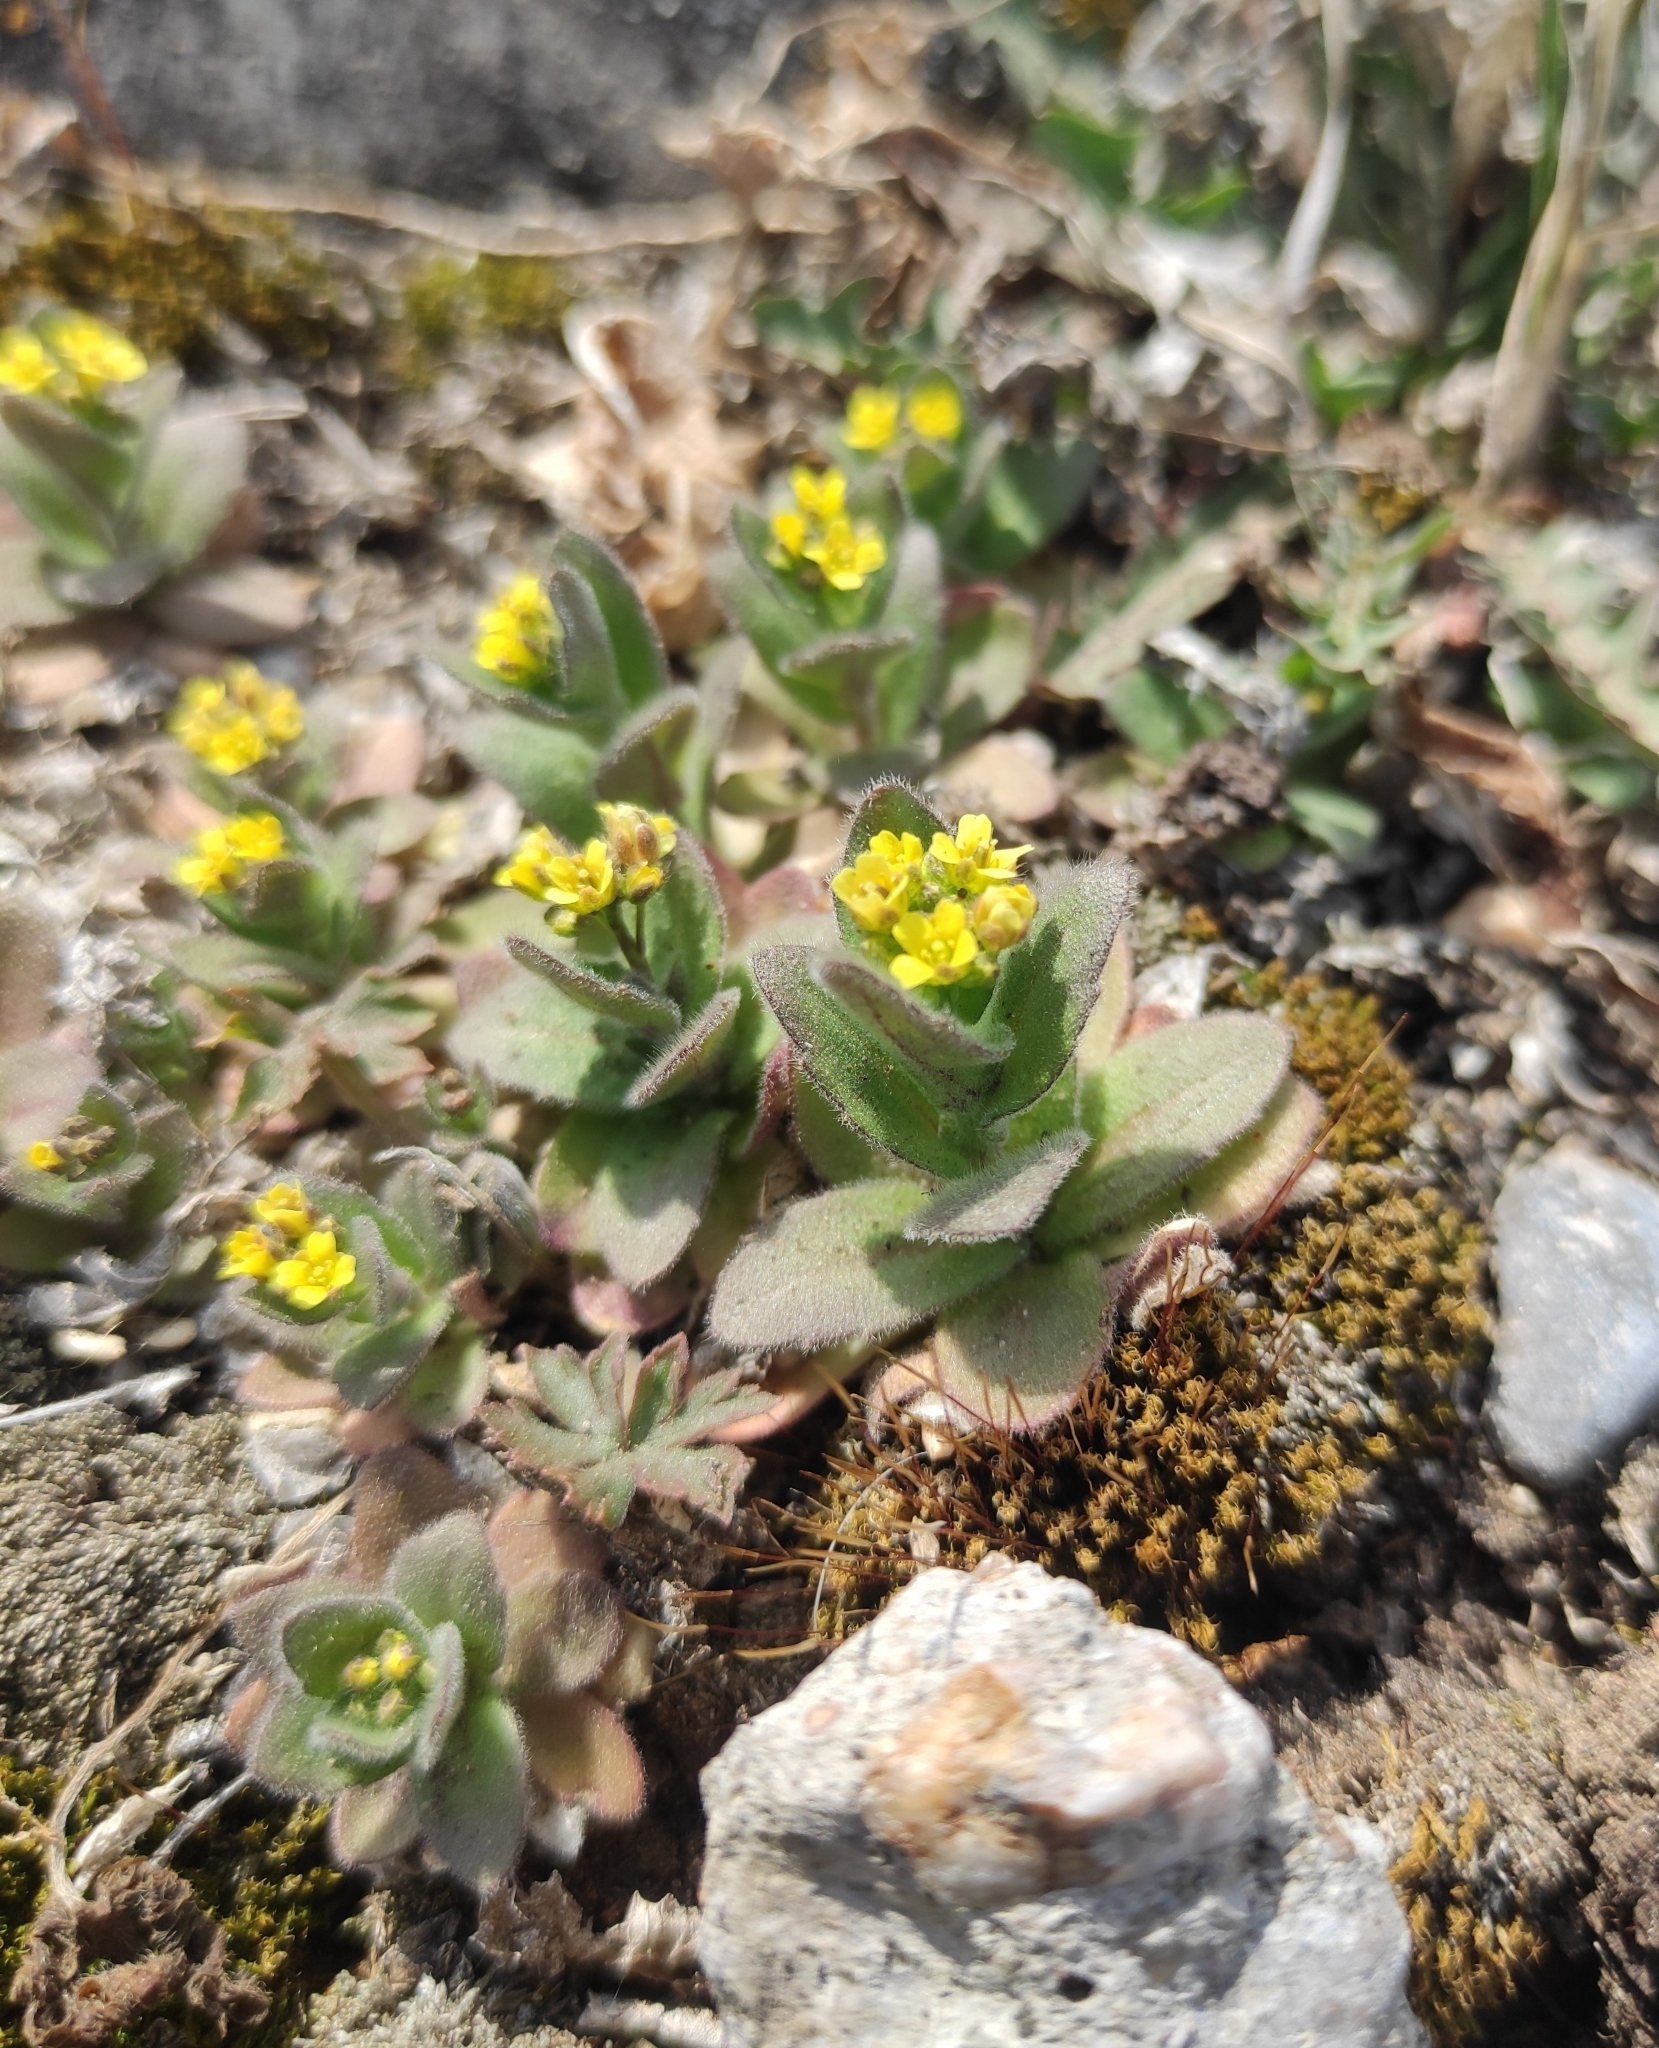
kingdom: Plantae
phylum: Tracheophyta
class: Magnoliopsida
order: Brassicales
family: Brassicaceae
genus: Draba
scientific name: Draba nemorosa
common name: Wood whitlow-grass
